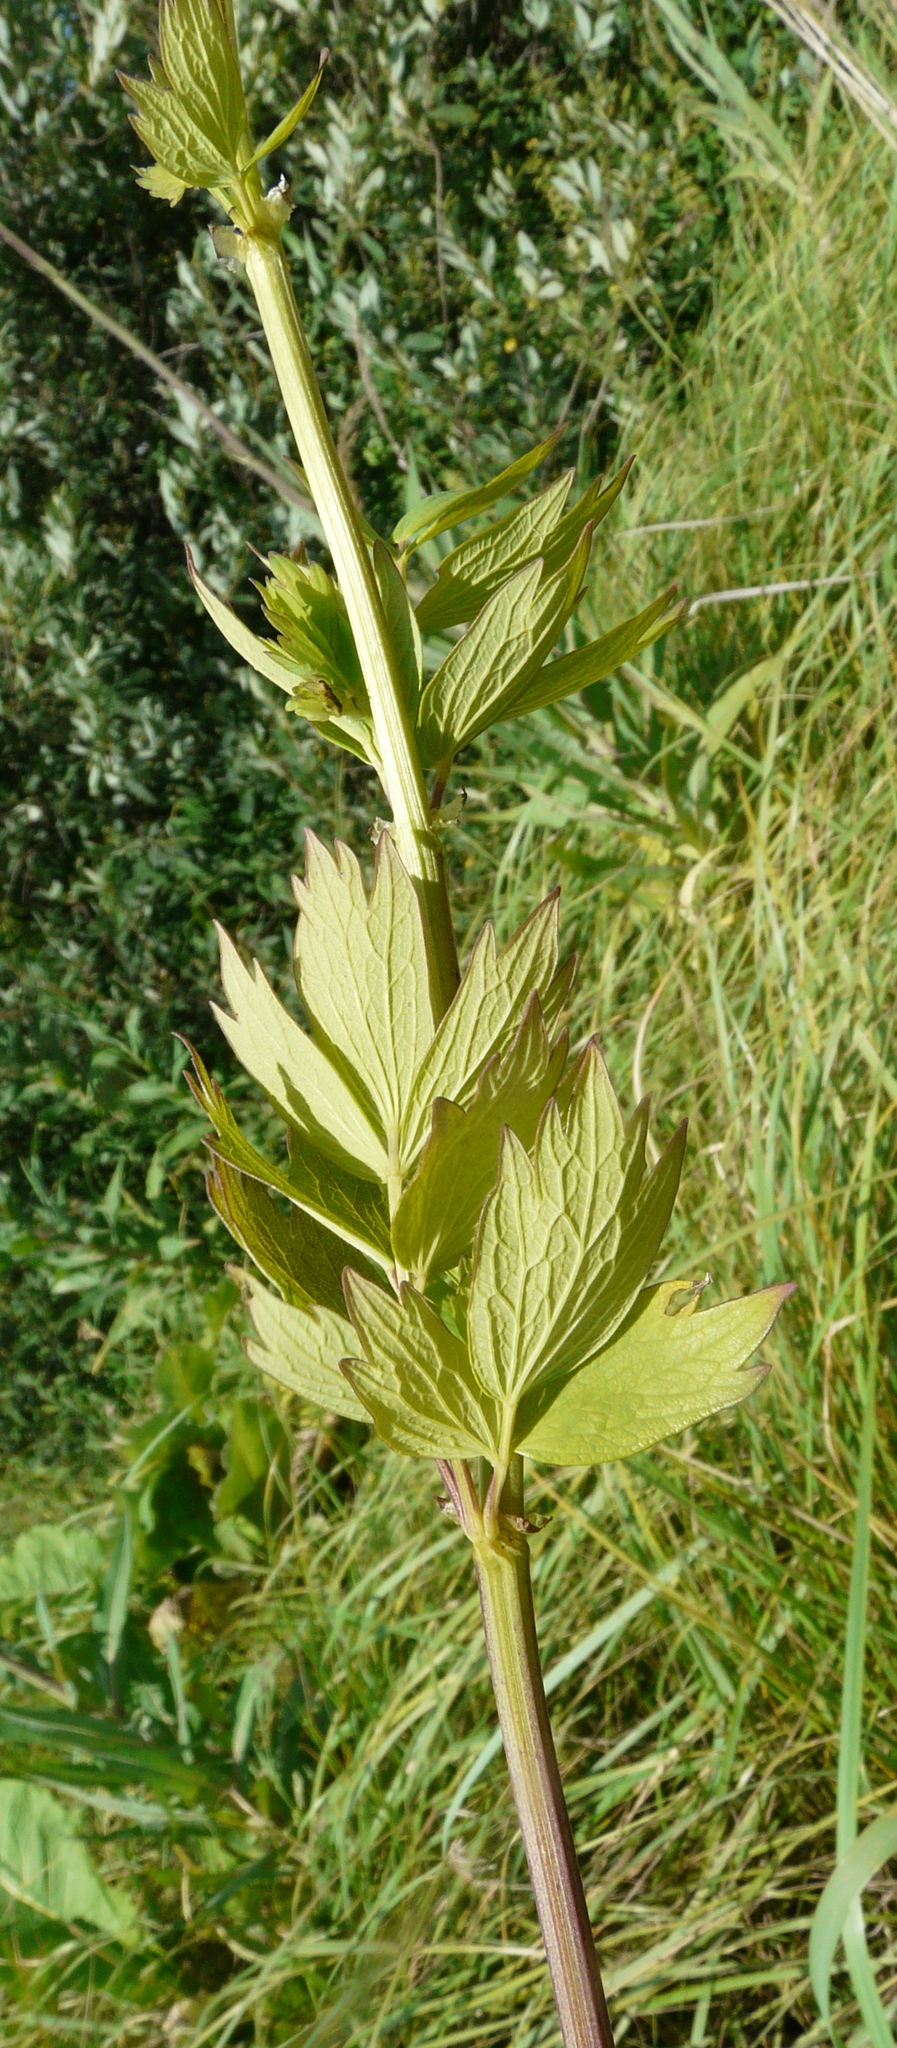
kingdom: Plantae
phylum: Tracheophyta
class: Magnoliopsida
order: Ranunculales
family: Ranunculaceae
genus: Thalictrum
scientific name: Thalictrum flavum
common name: Common meadow-rue
